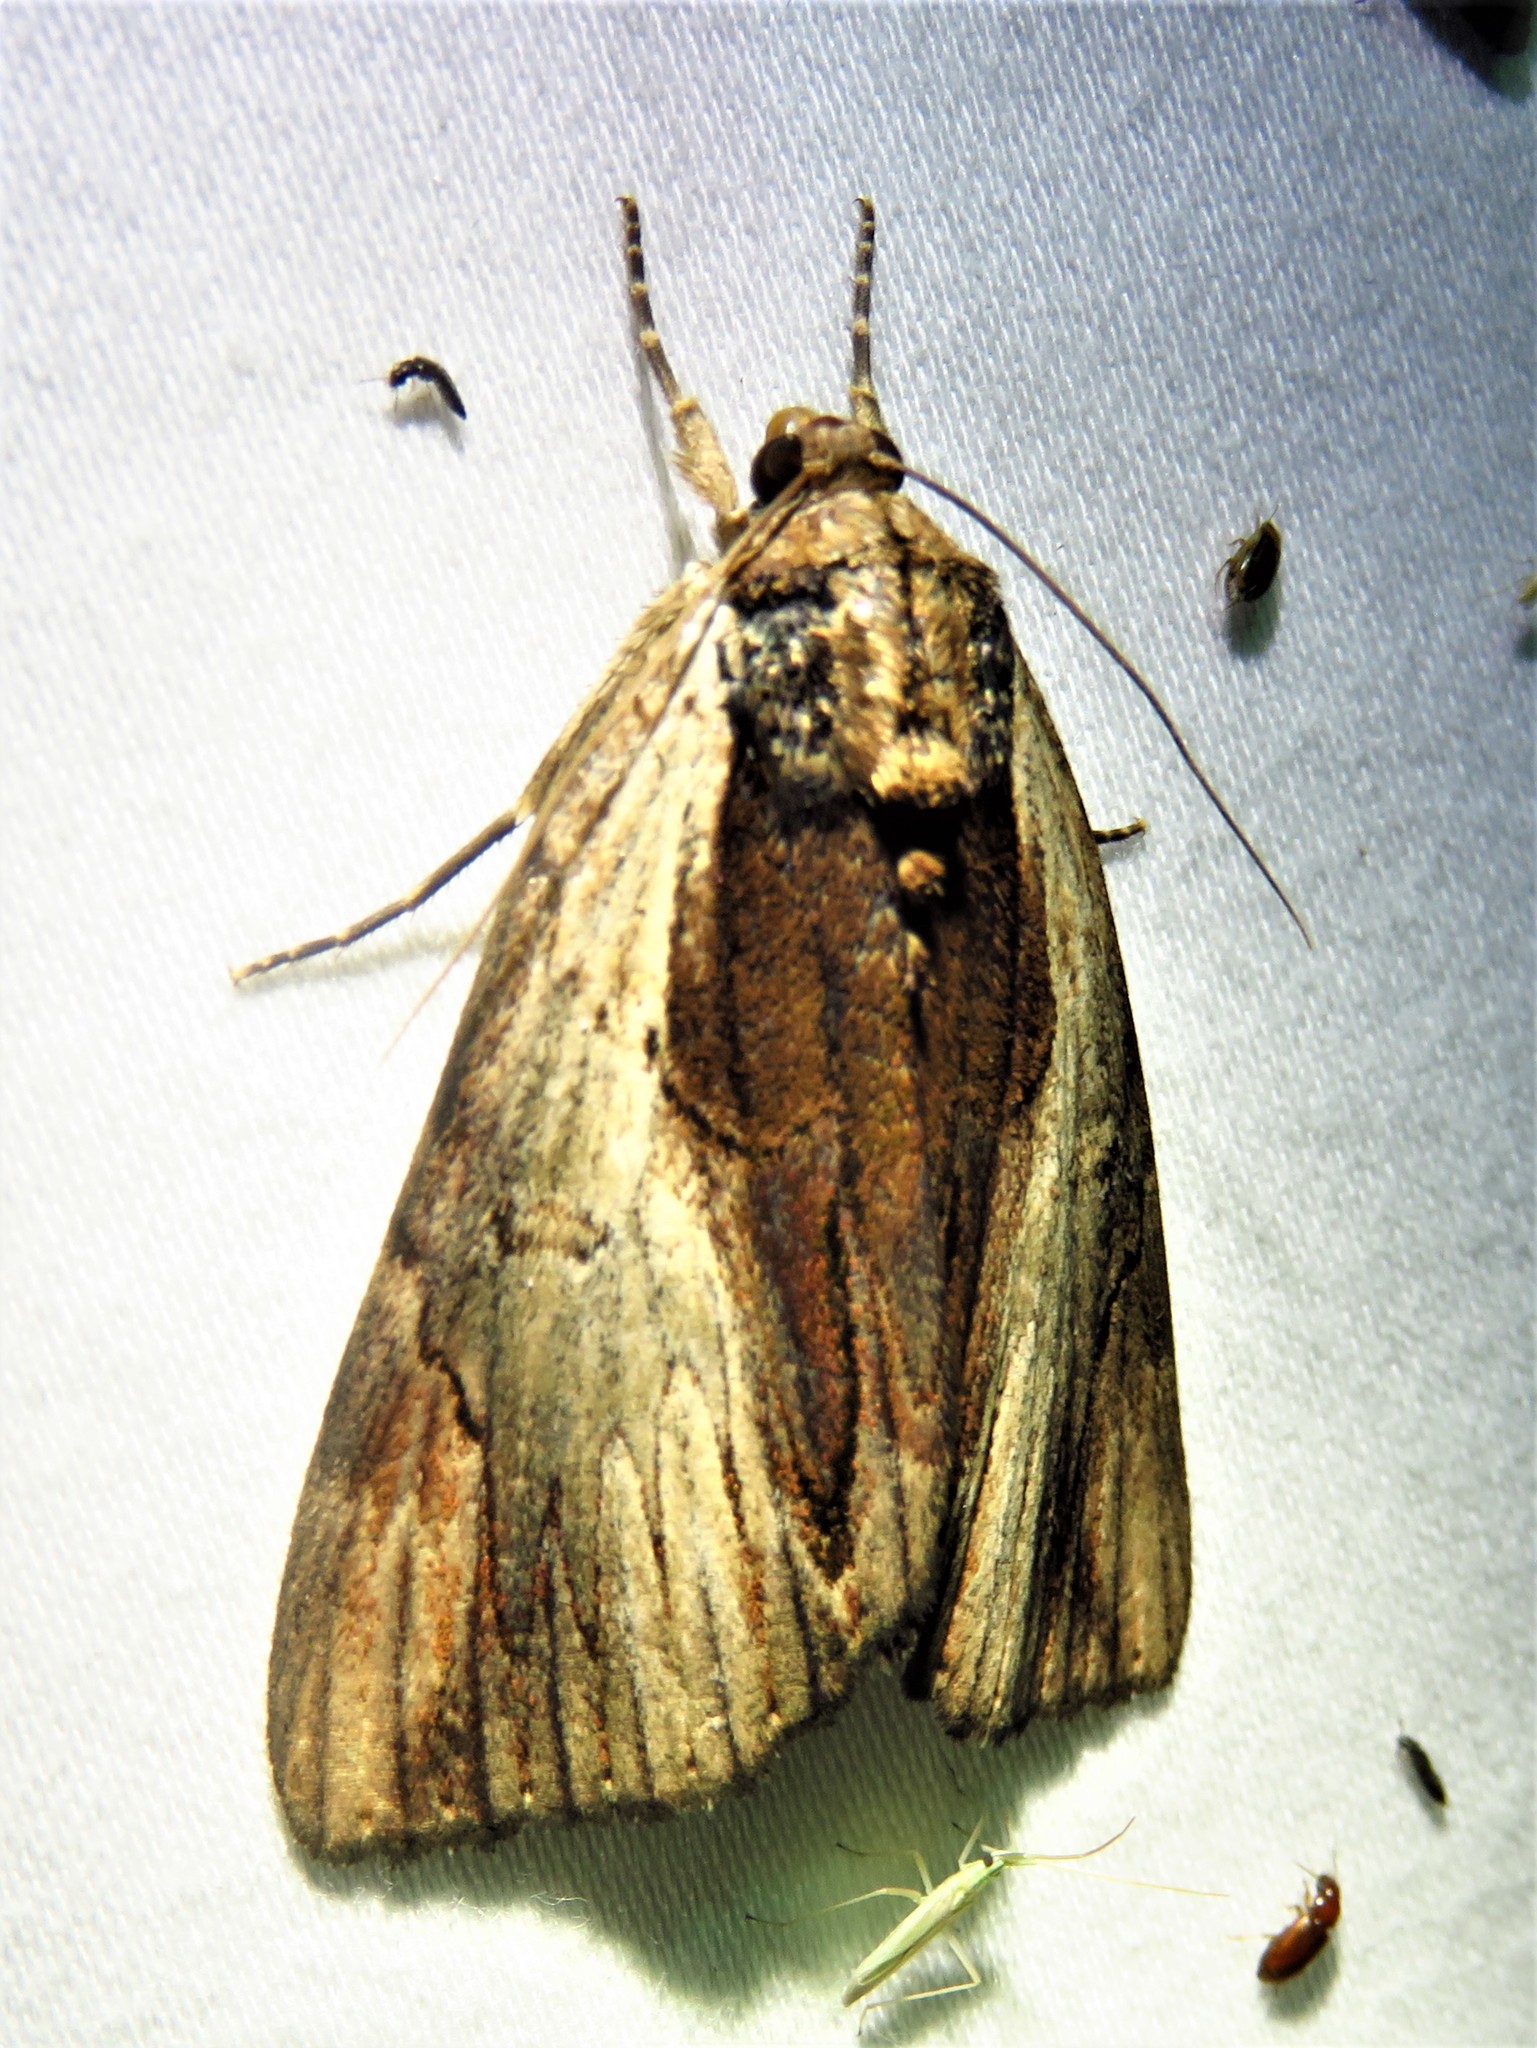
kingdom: Animalia
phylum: Arthropoda
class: Insecta
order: Lepidoptera
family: Erebidae
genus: Catocala
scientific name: Catocala ultronia
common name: Ultronia underwing
